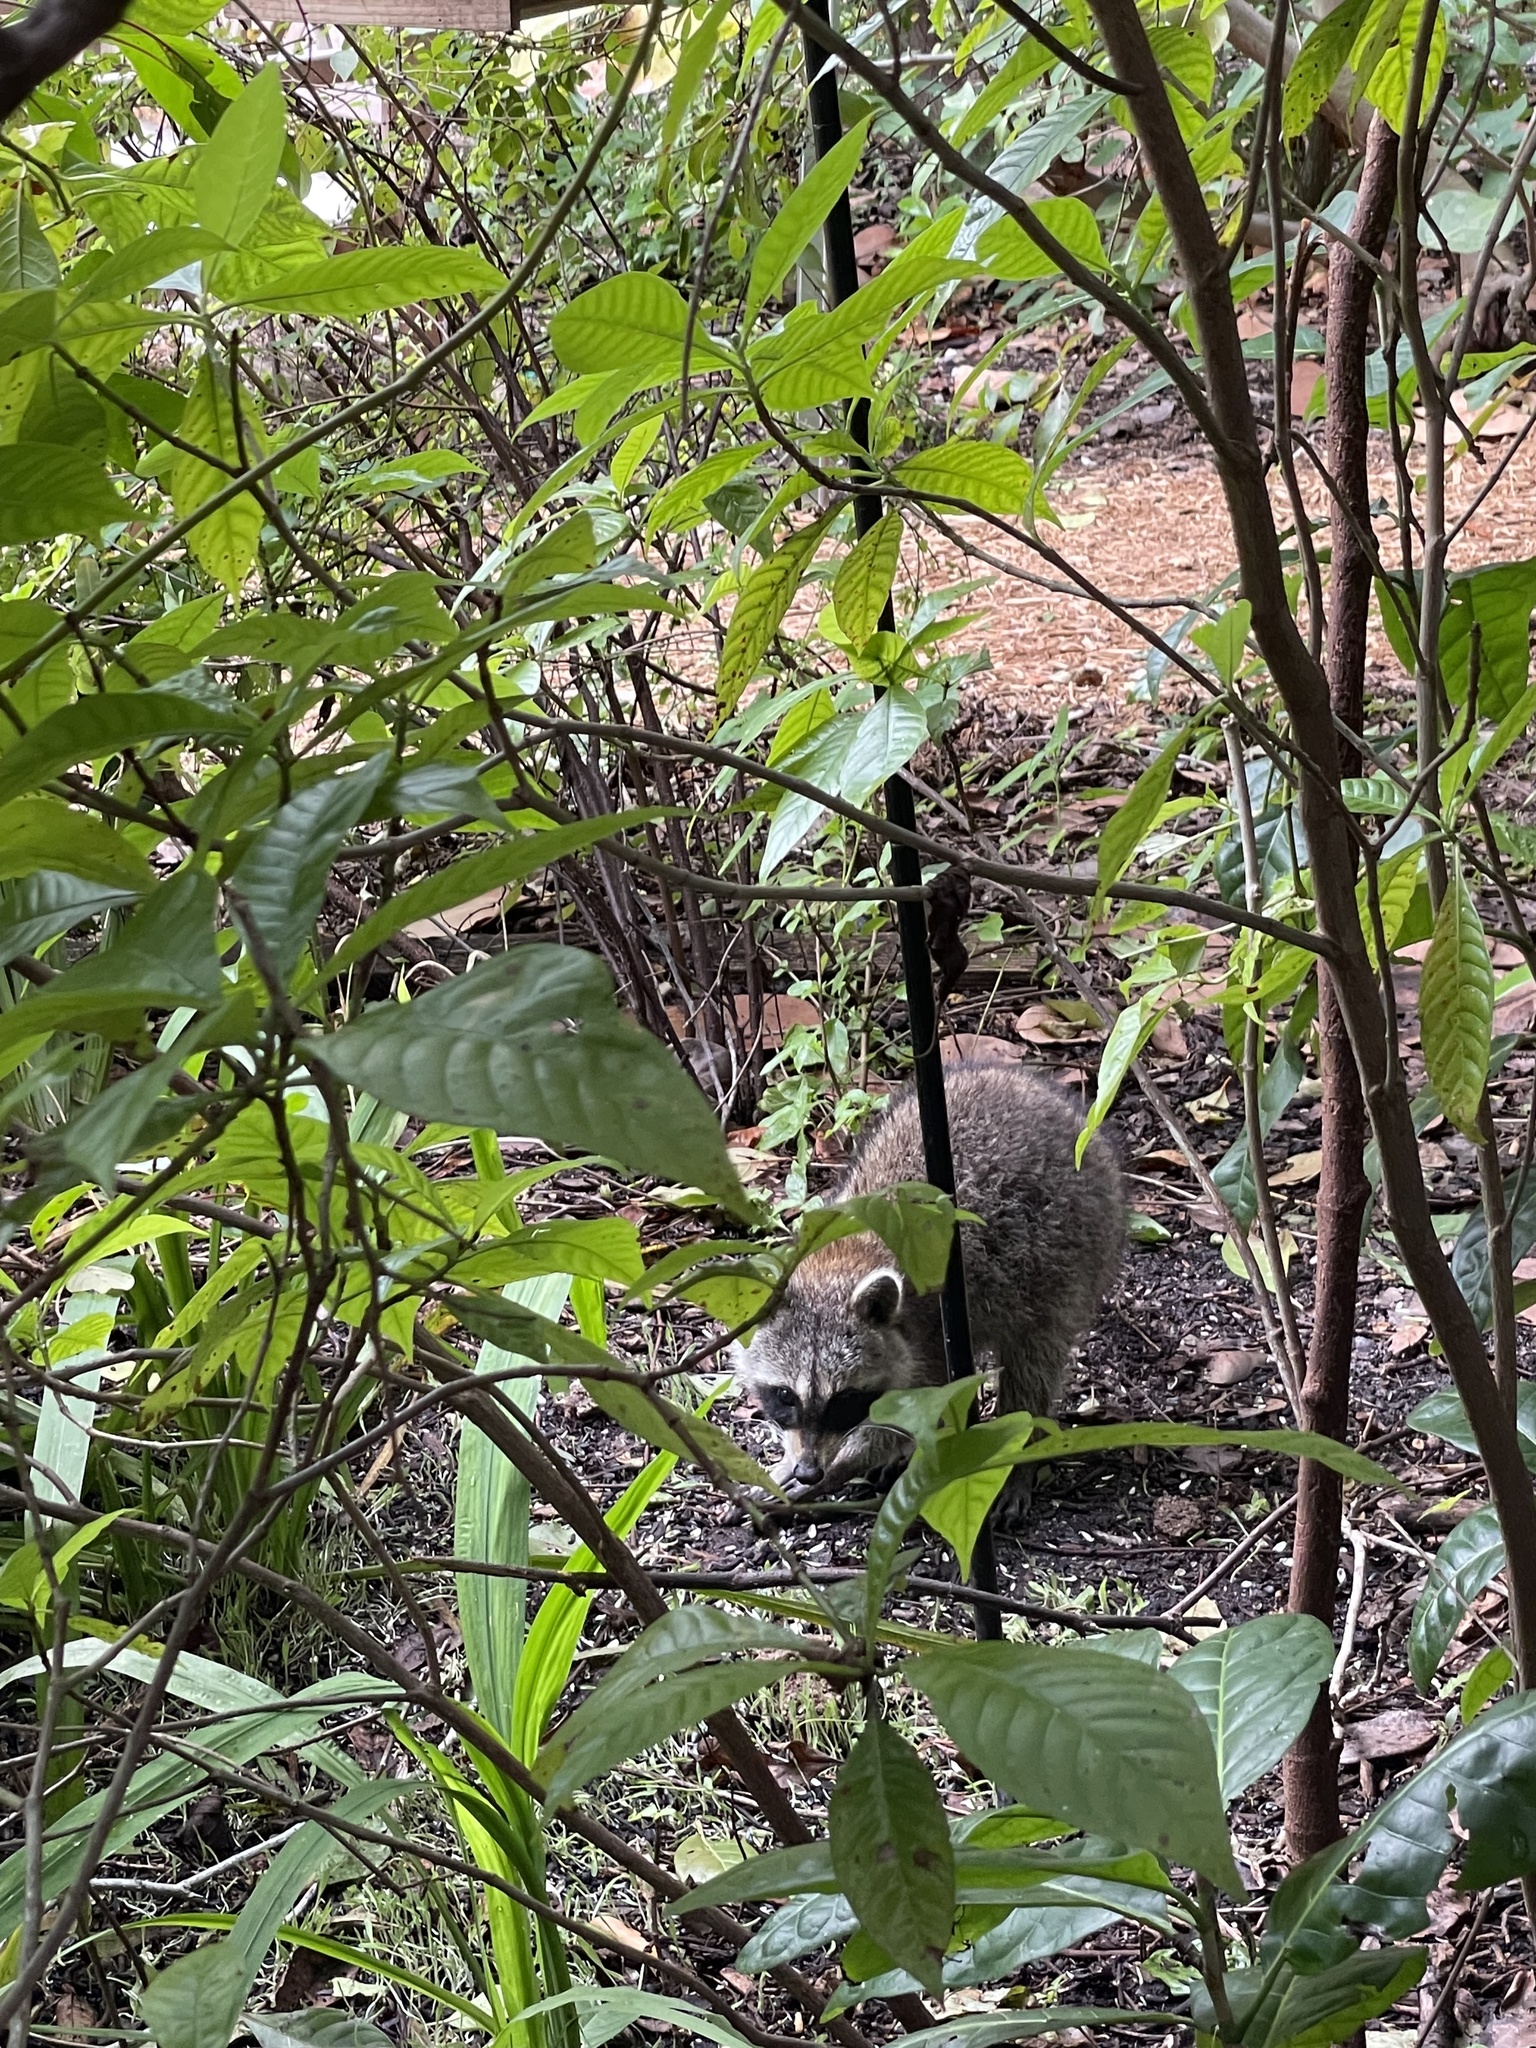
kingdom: Animalia
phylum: Chordata
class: Mammalia
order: Carnivora
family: Procyonidae
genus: Procyon
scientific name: Procyon lotor
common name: Raccoon
